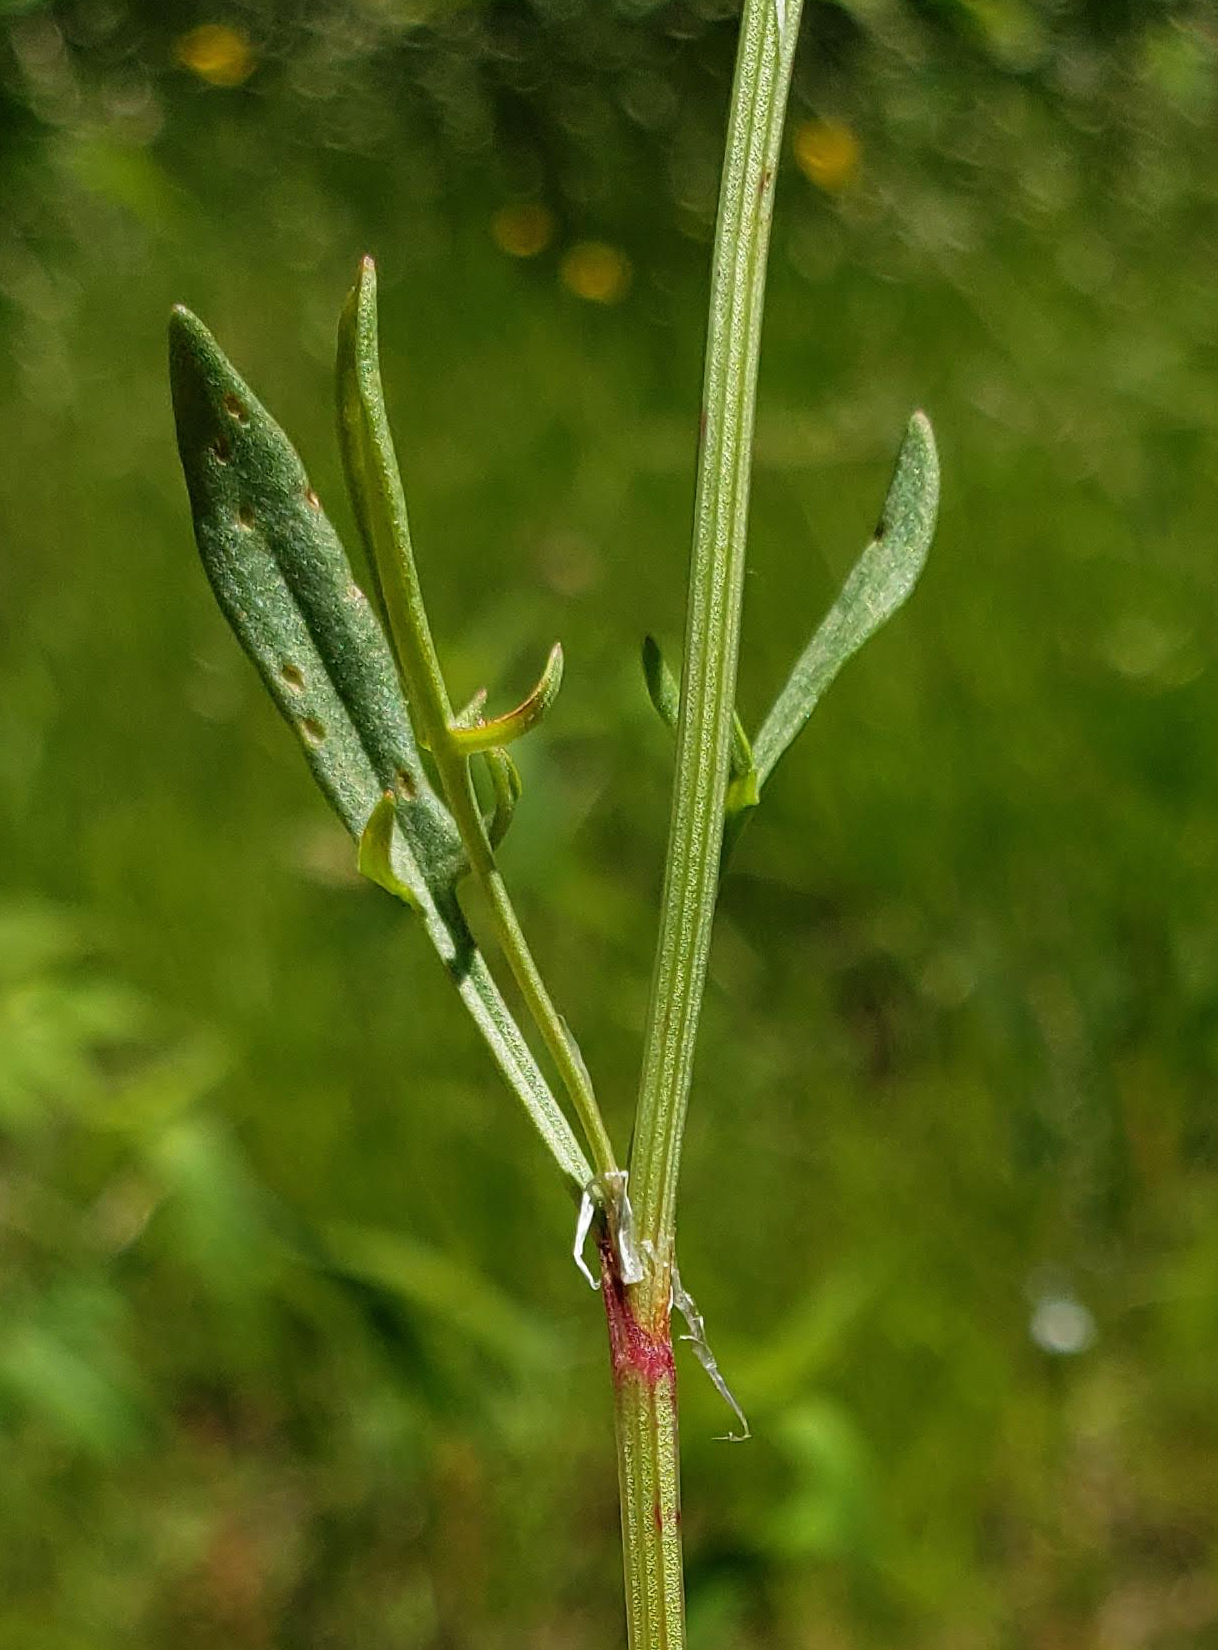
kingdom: Plantae
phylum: Tracheophyta
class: Magnoliopsida
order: Caryophyllales
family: Polygonaceae
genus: Rumex
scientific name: Rumex acetosella
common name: Common sheep sorrel
